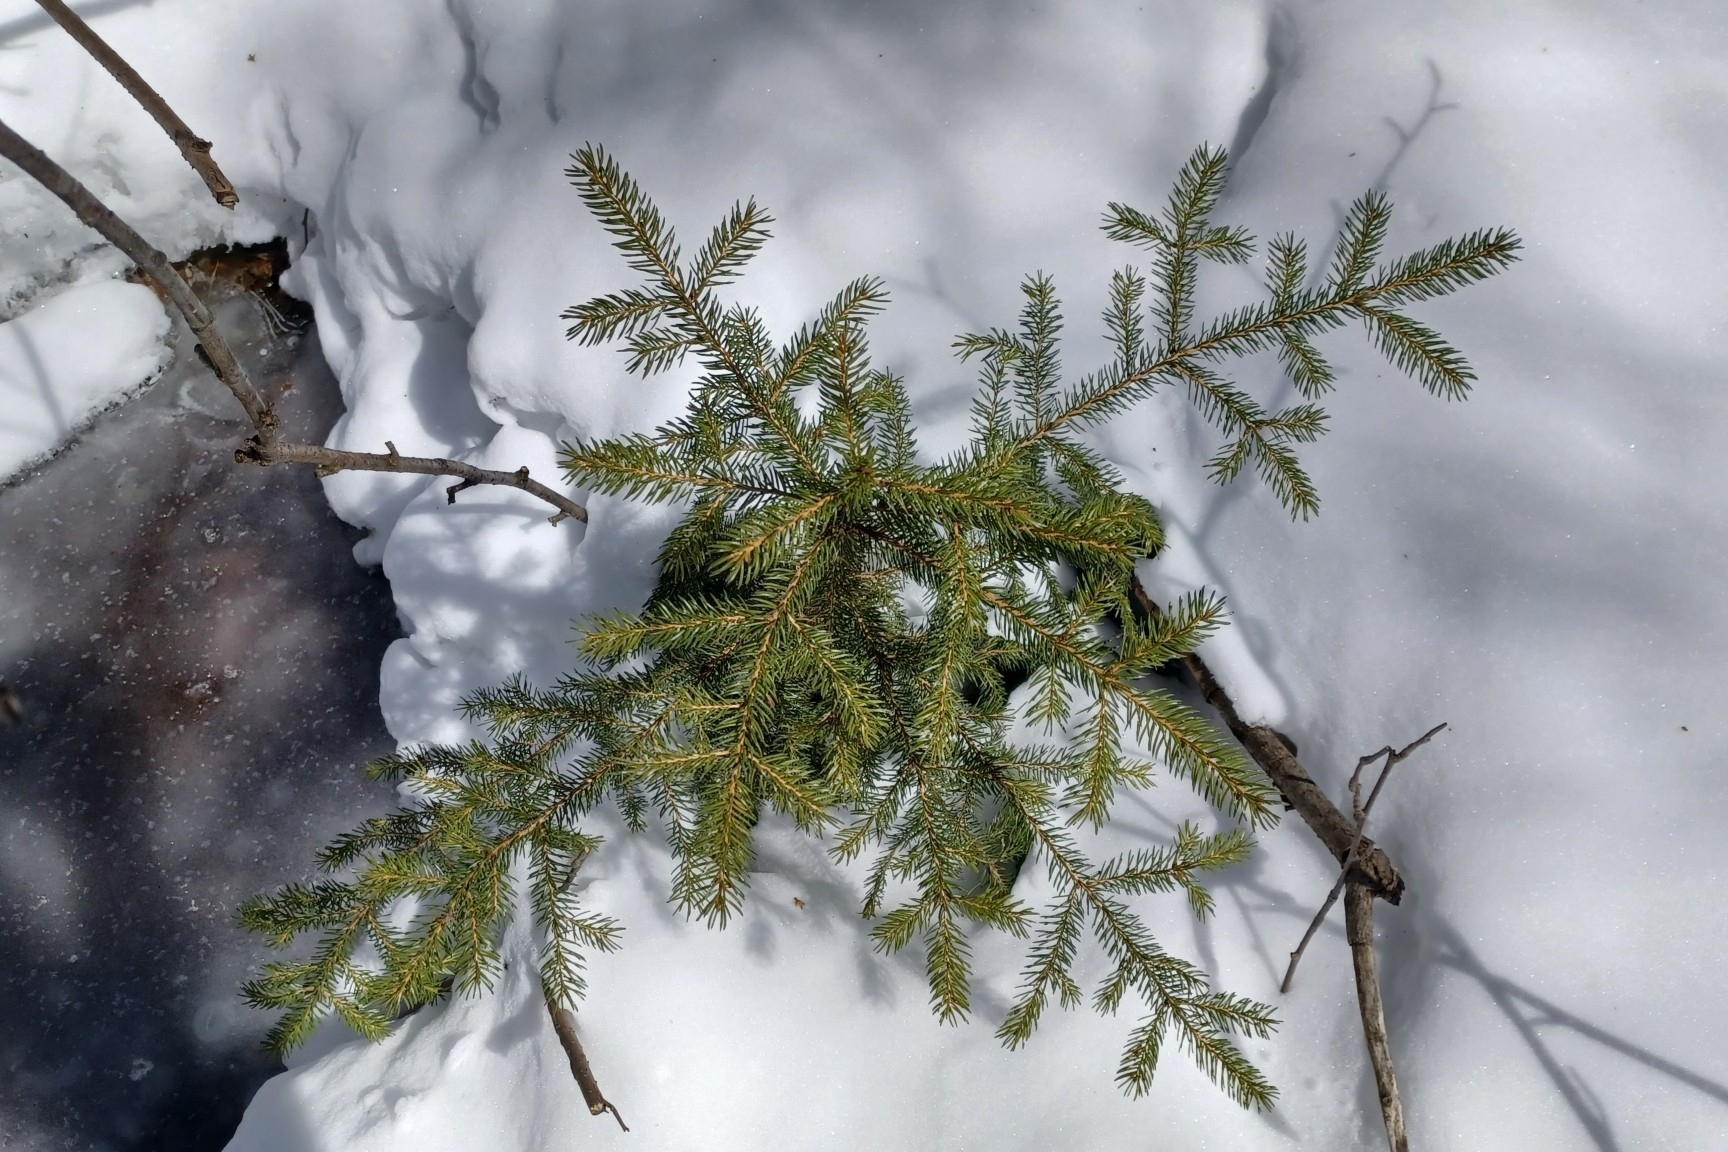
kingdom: Plantae
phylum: Tracheophyta
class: Pinopsida
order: Pinales
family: Pinaceae
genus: Picea
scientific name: Picea rubens
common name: Red spruce
